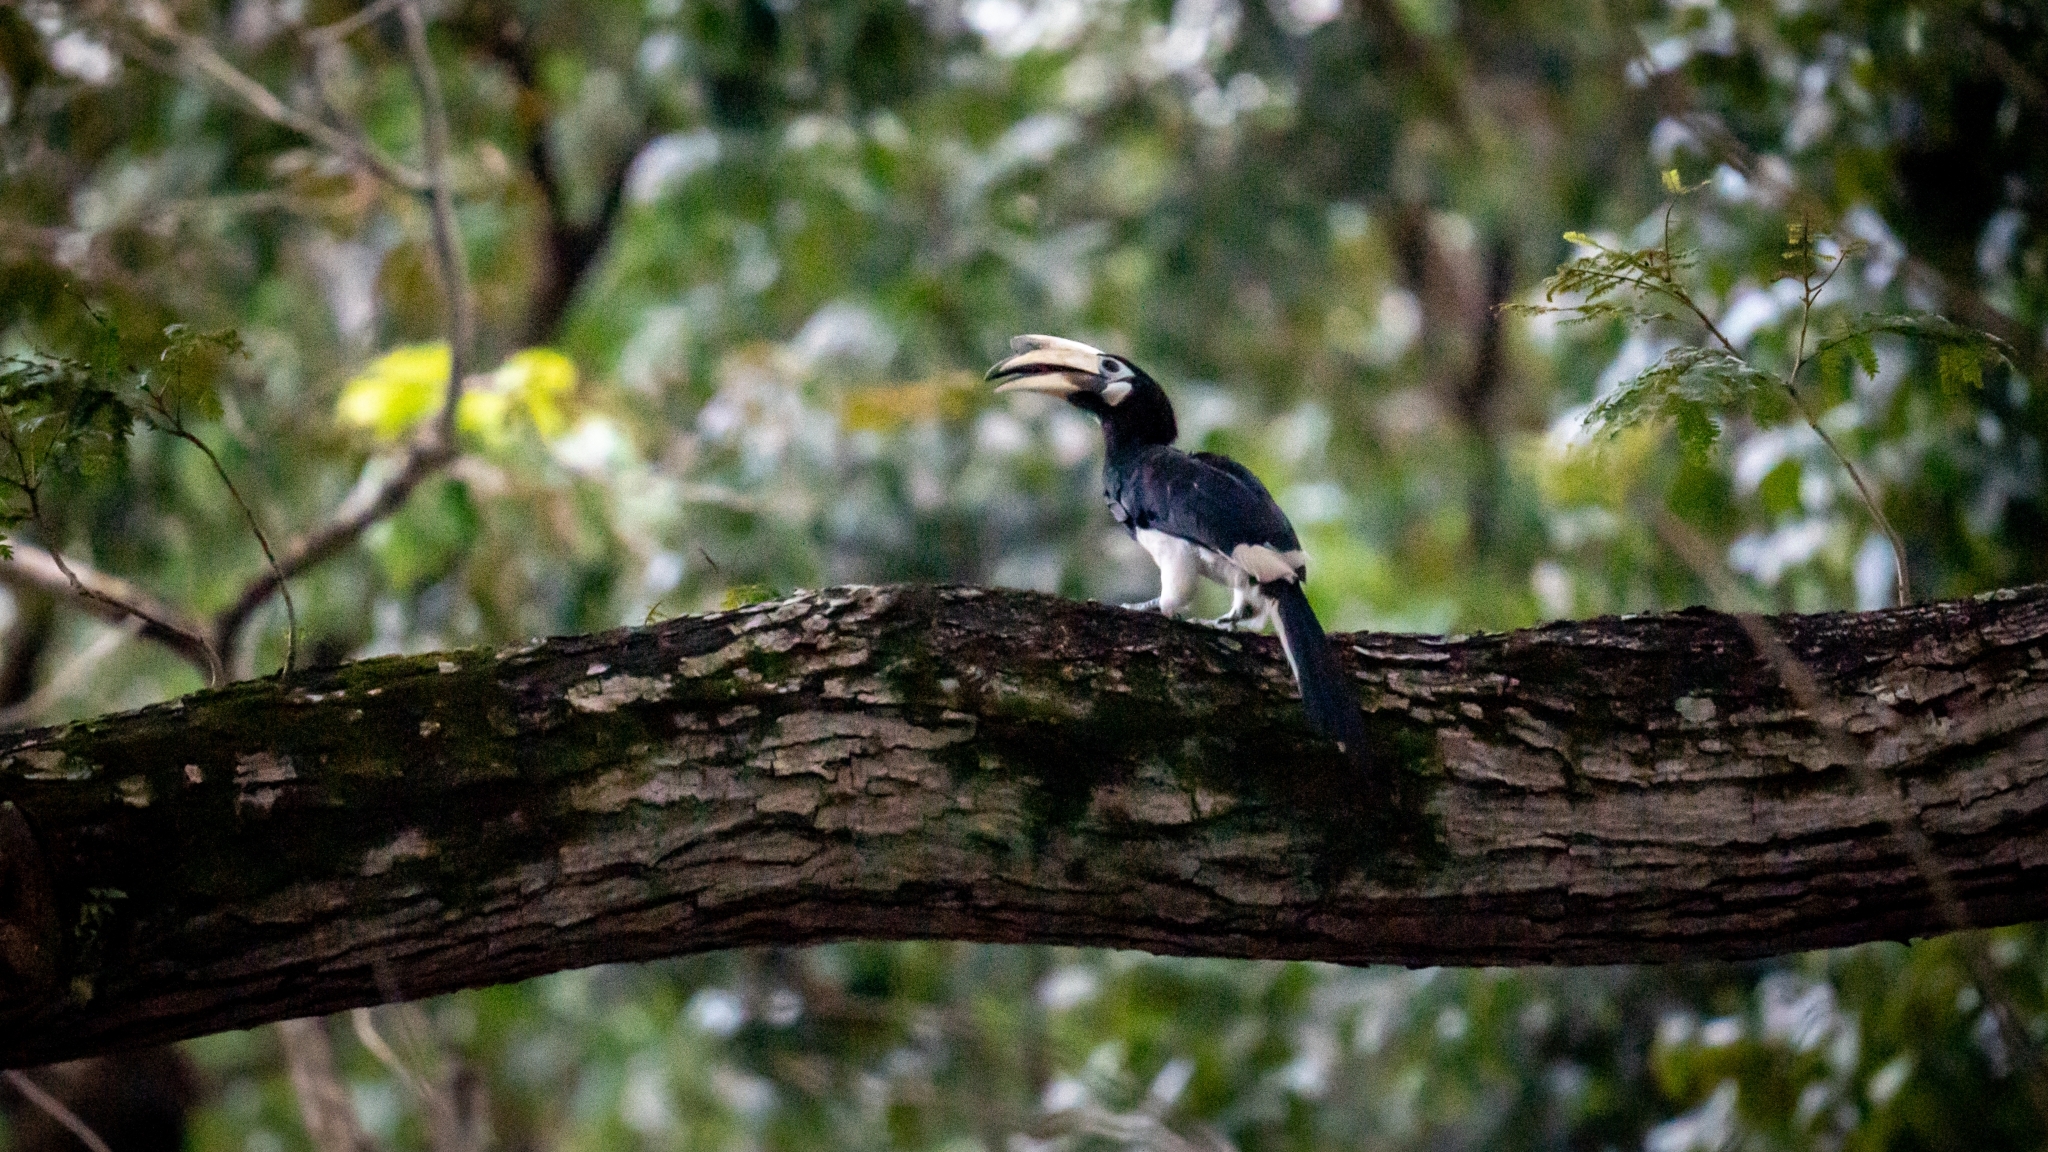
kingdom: Animalia
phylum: Chordata
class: Aves
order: Bucerotiformes
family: Bucerotidae
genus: Anthracoceros
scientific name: Anthracoceros albirostris
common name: Oriental pied-hornbill
